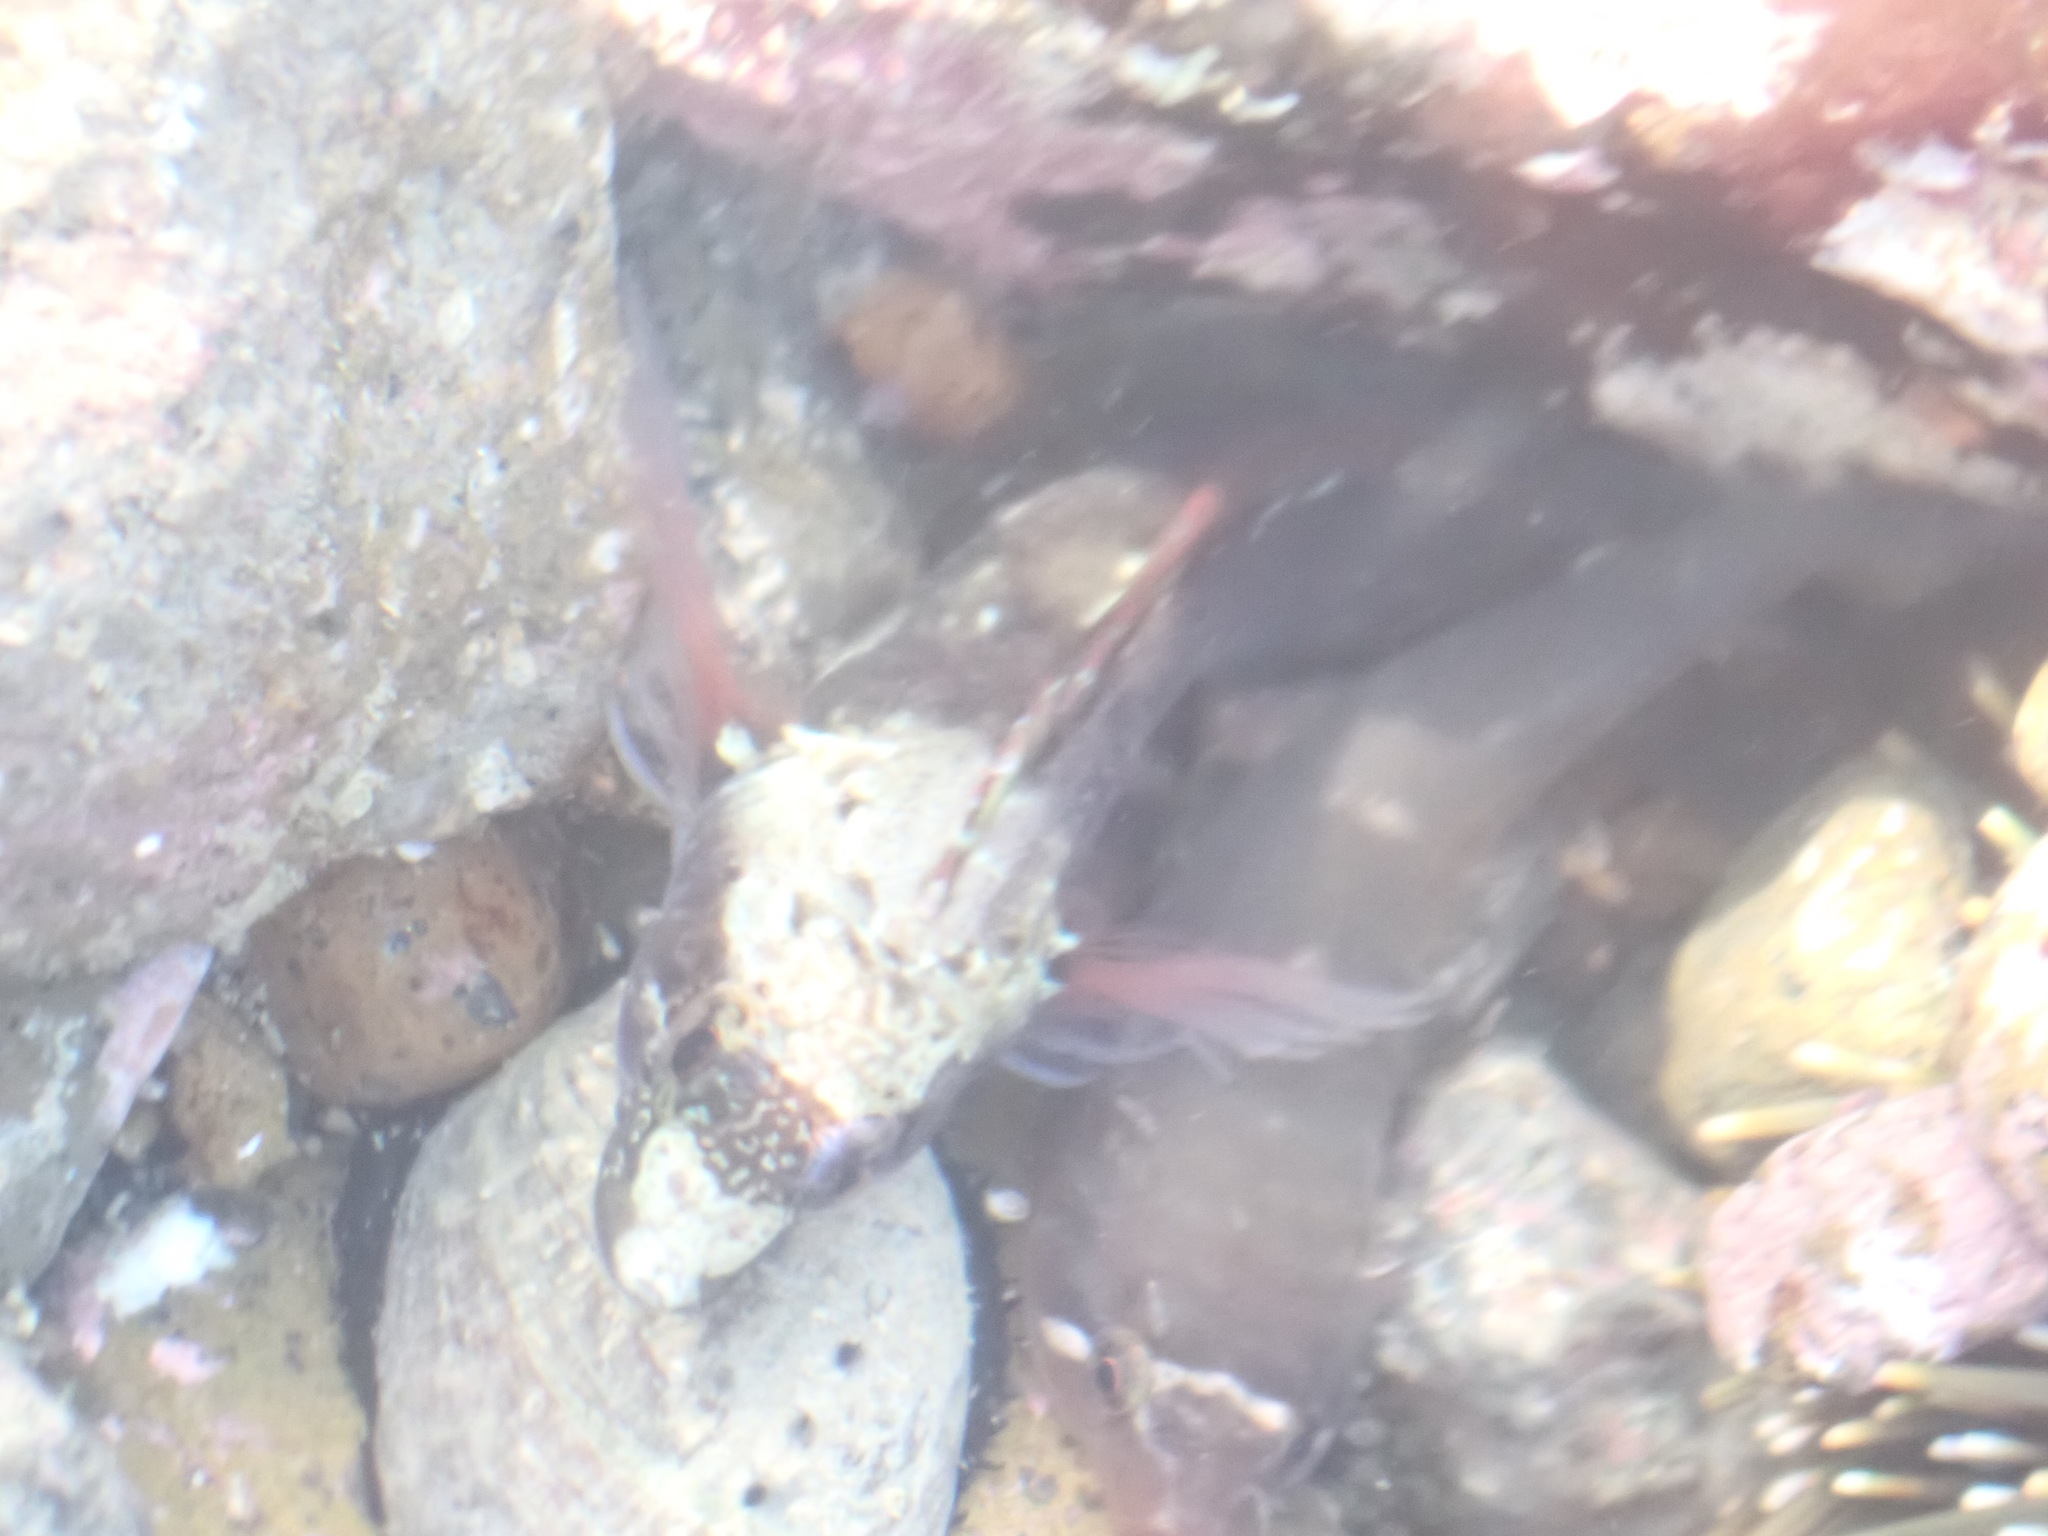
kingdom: Animalia
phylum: Chordata
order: Perciformes
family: Tripterygiidae
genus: Ruanoho
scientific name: Ruanoho decemdigitatus
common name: Longfinned triplefin
